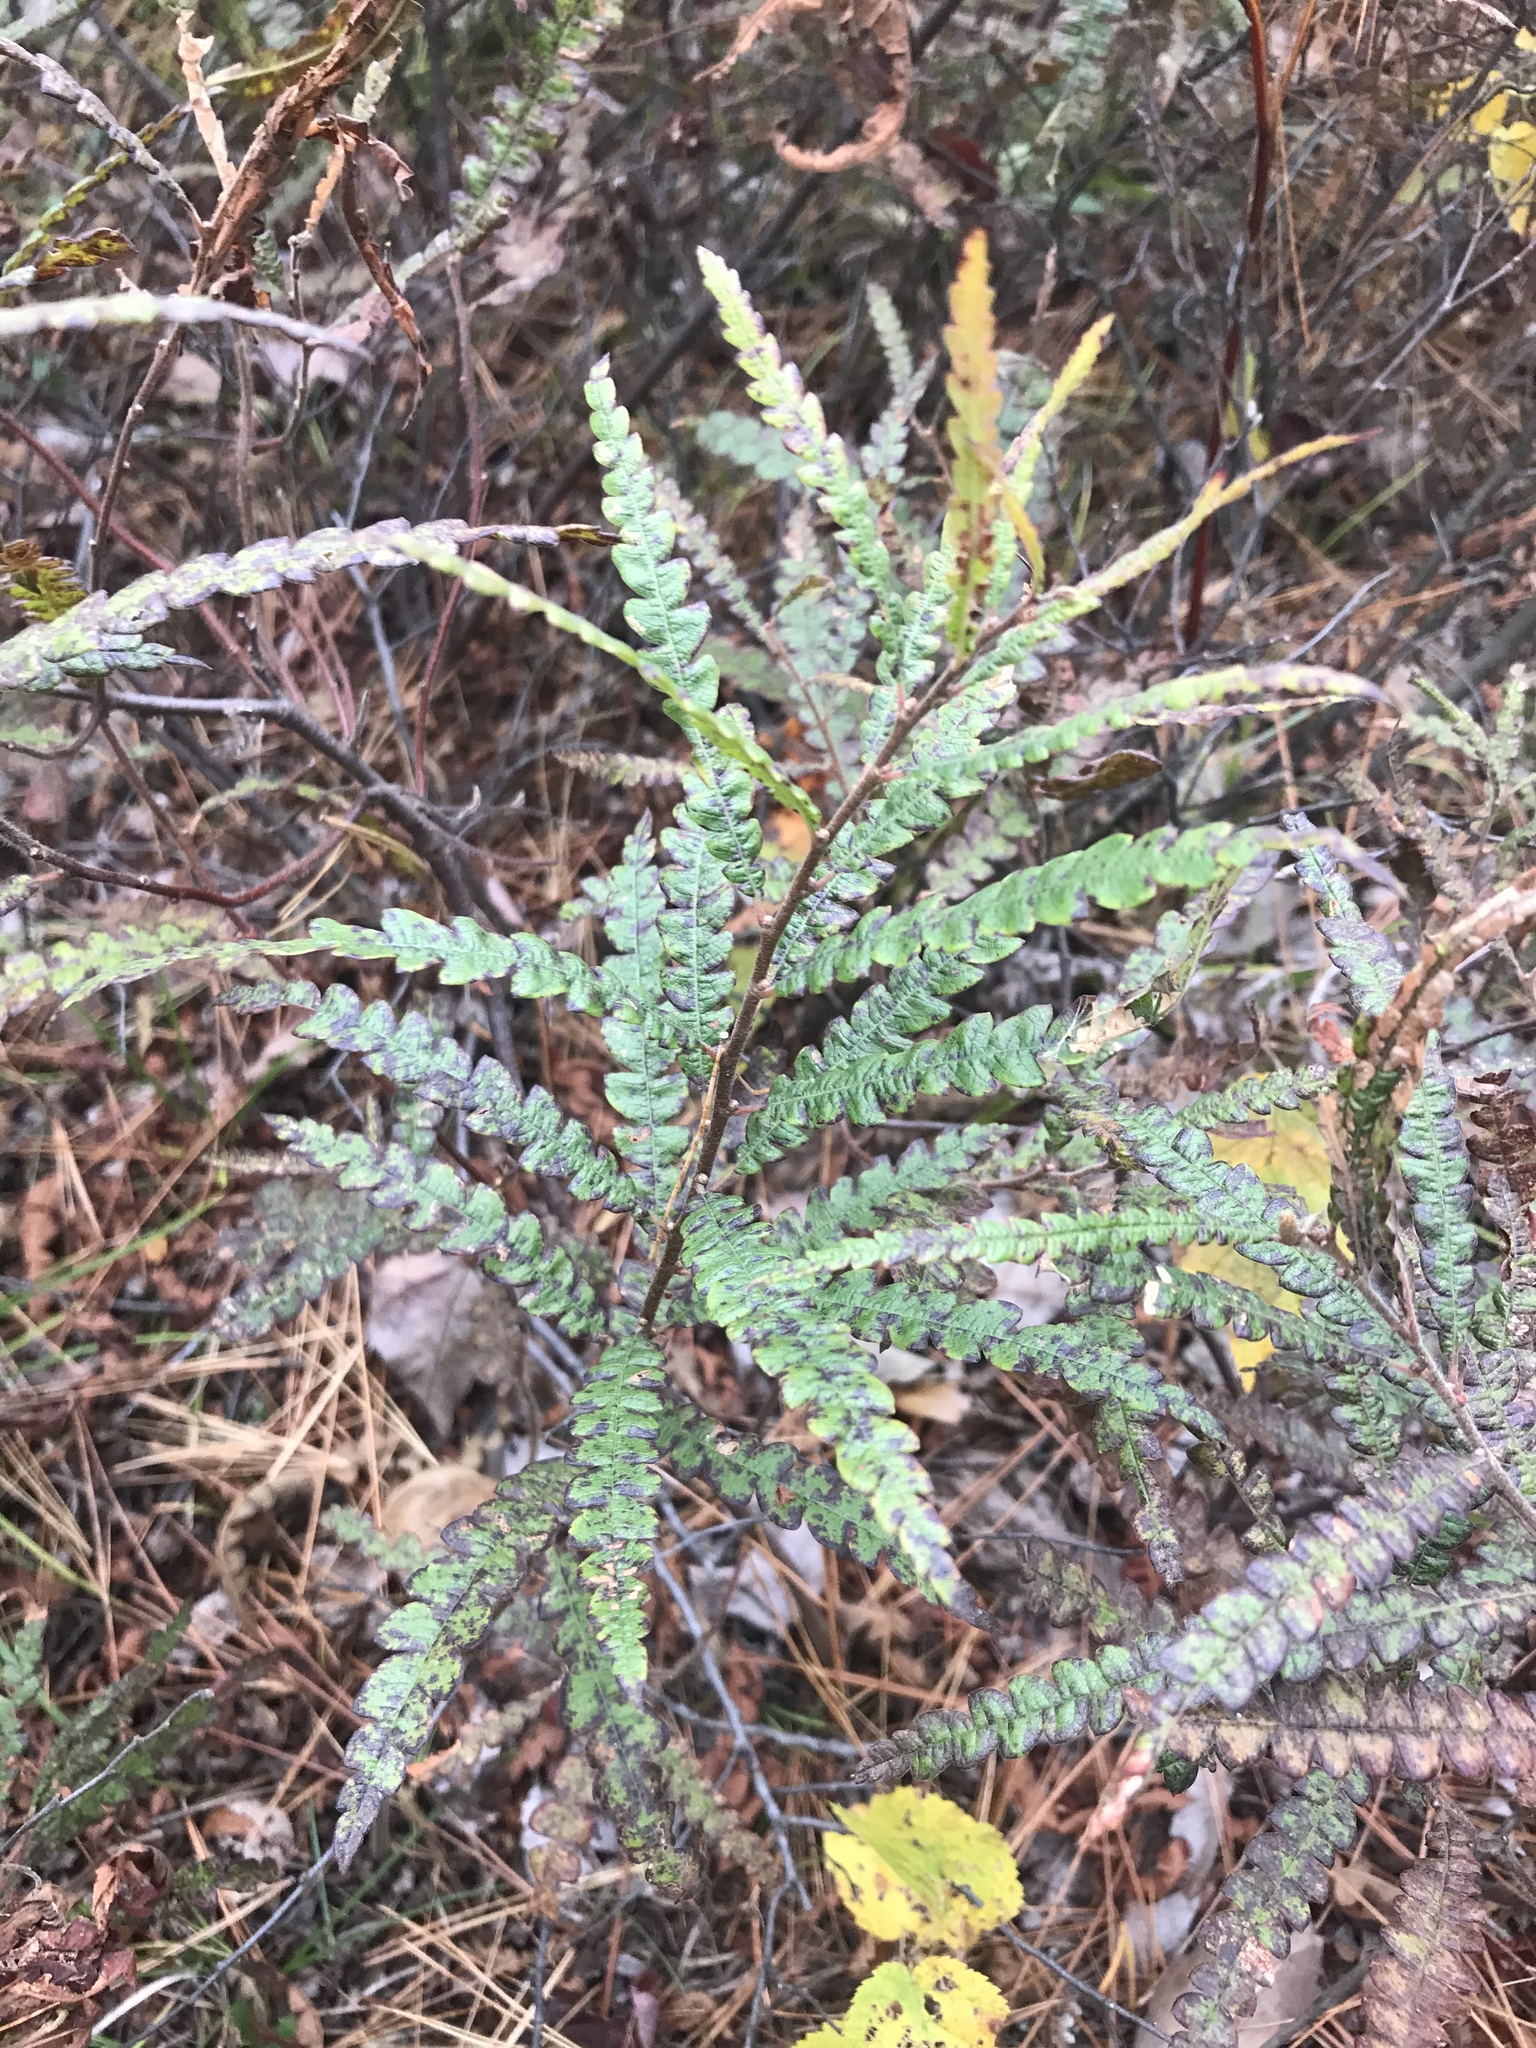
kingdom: Plantae
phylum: Tracheophyta
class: Magnoliopsida
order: Fagales
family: Myricaceae
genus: Comptonia
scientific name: Comptonia peregrina
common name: Sweet-fern
